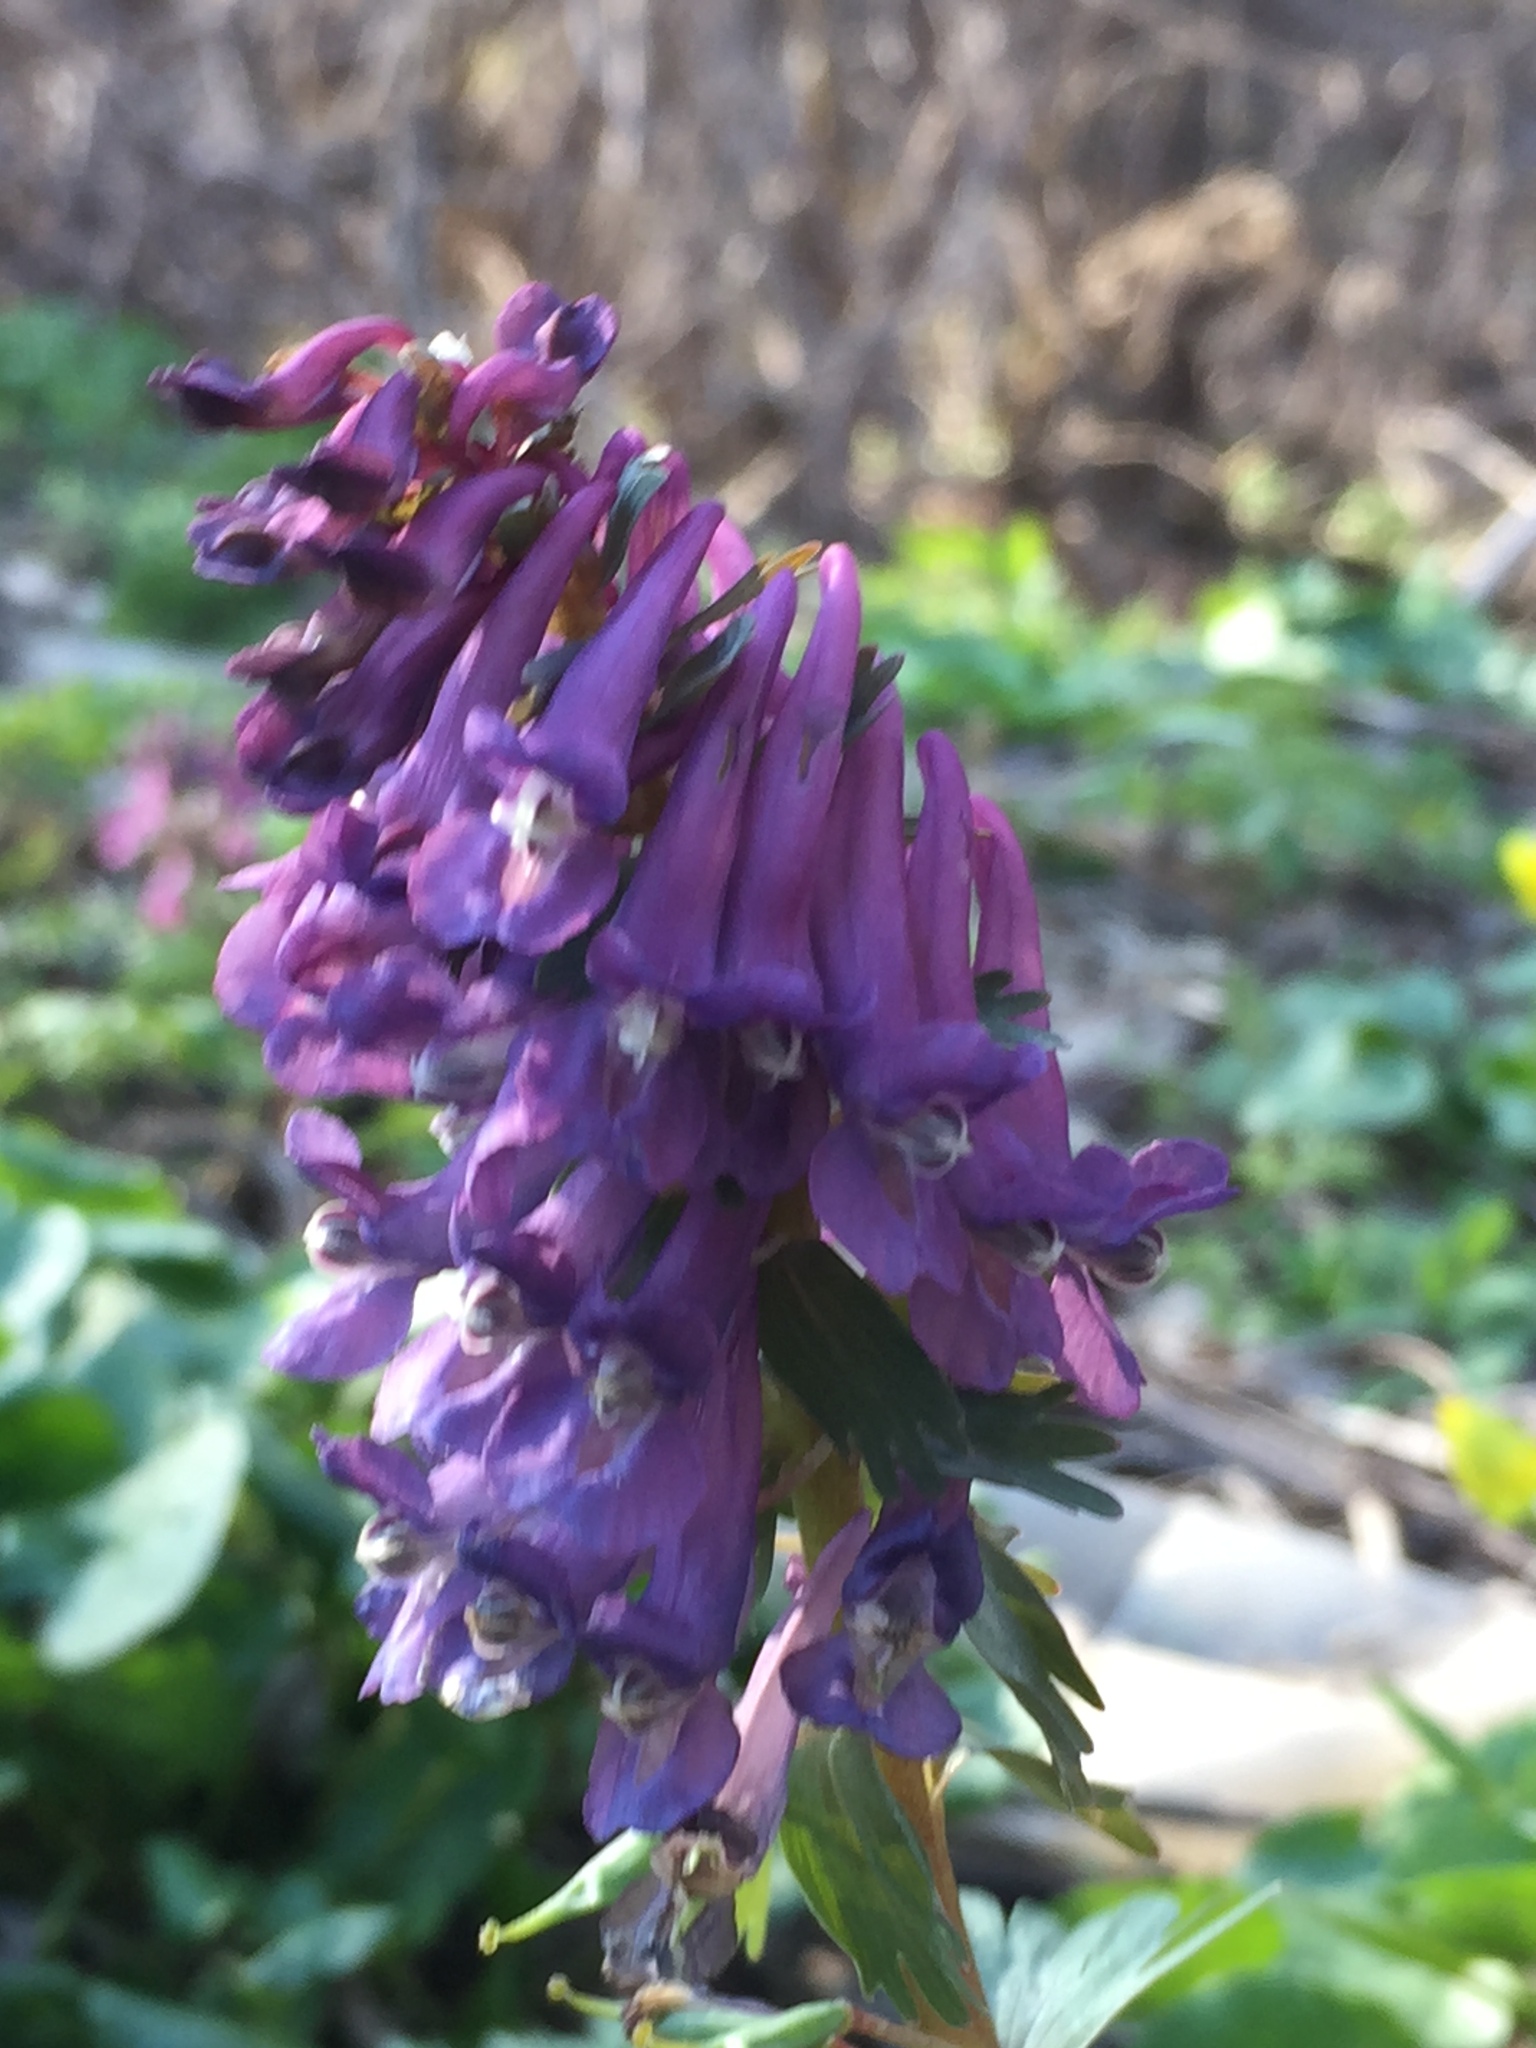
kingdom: Plantae
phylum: Tracheophyta
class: Magnoliopsida
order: Ranunculales
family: Papaveraceae
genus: Corydalis
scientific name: Corydalis solida
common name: Bird-in-a-bush
